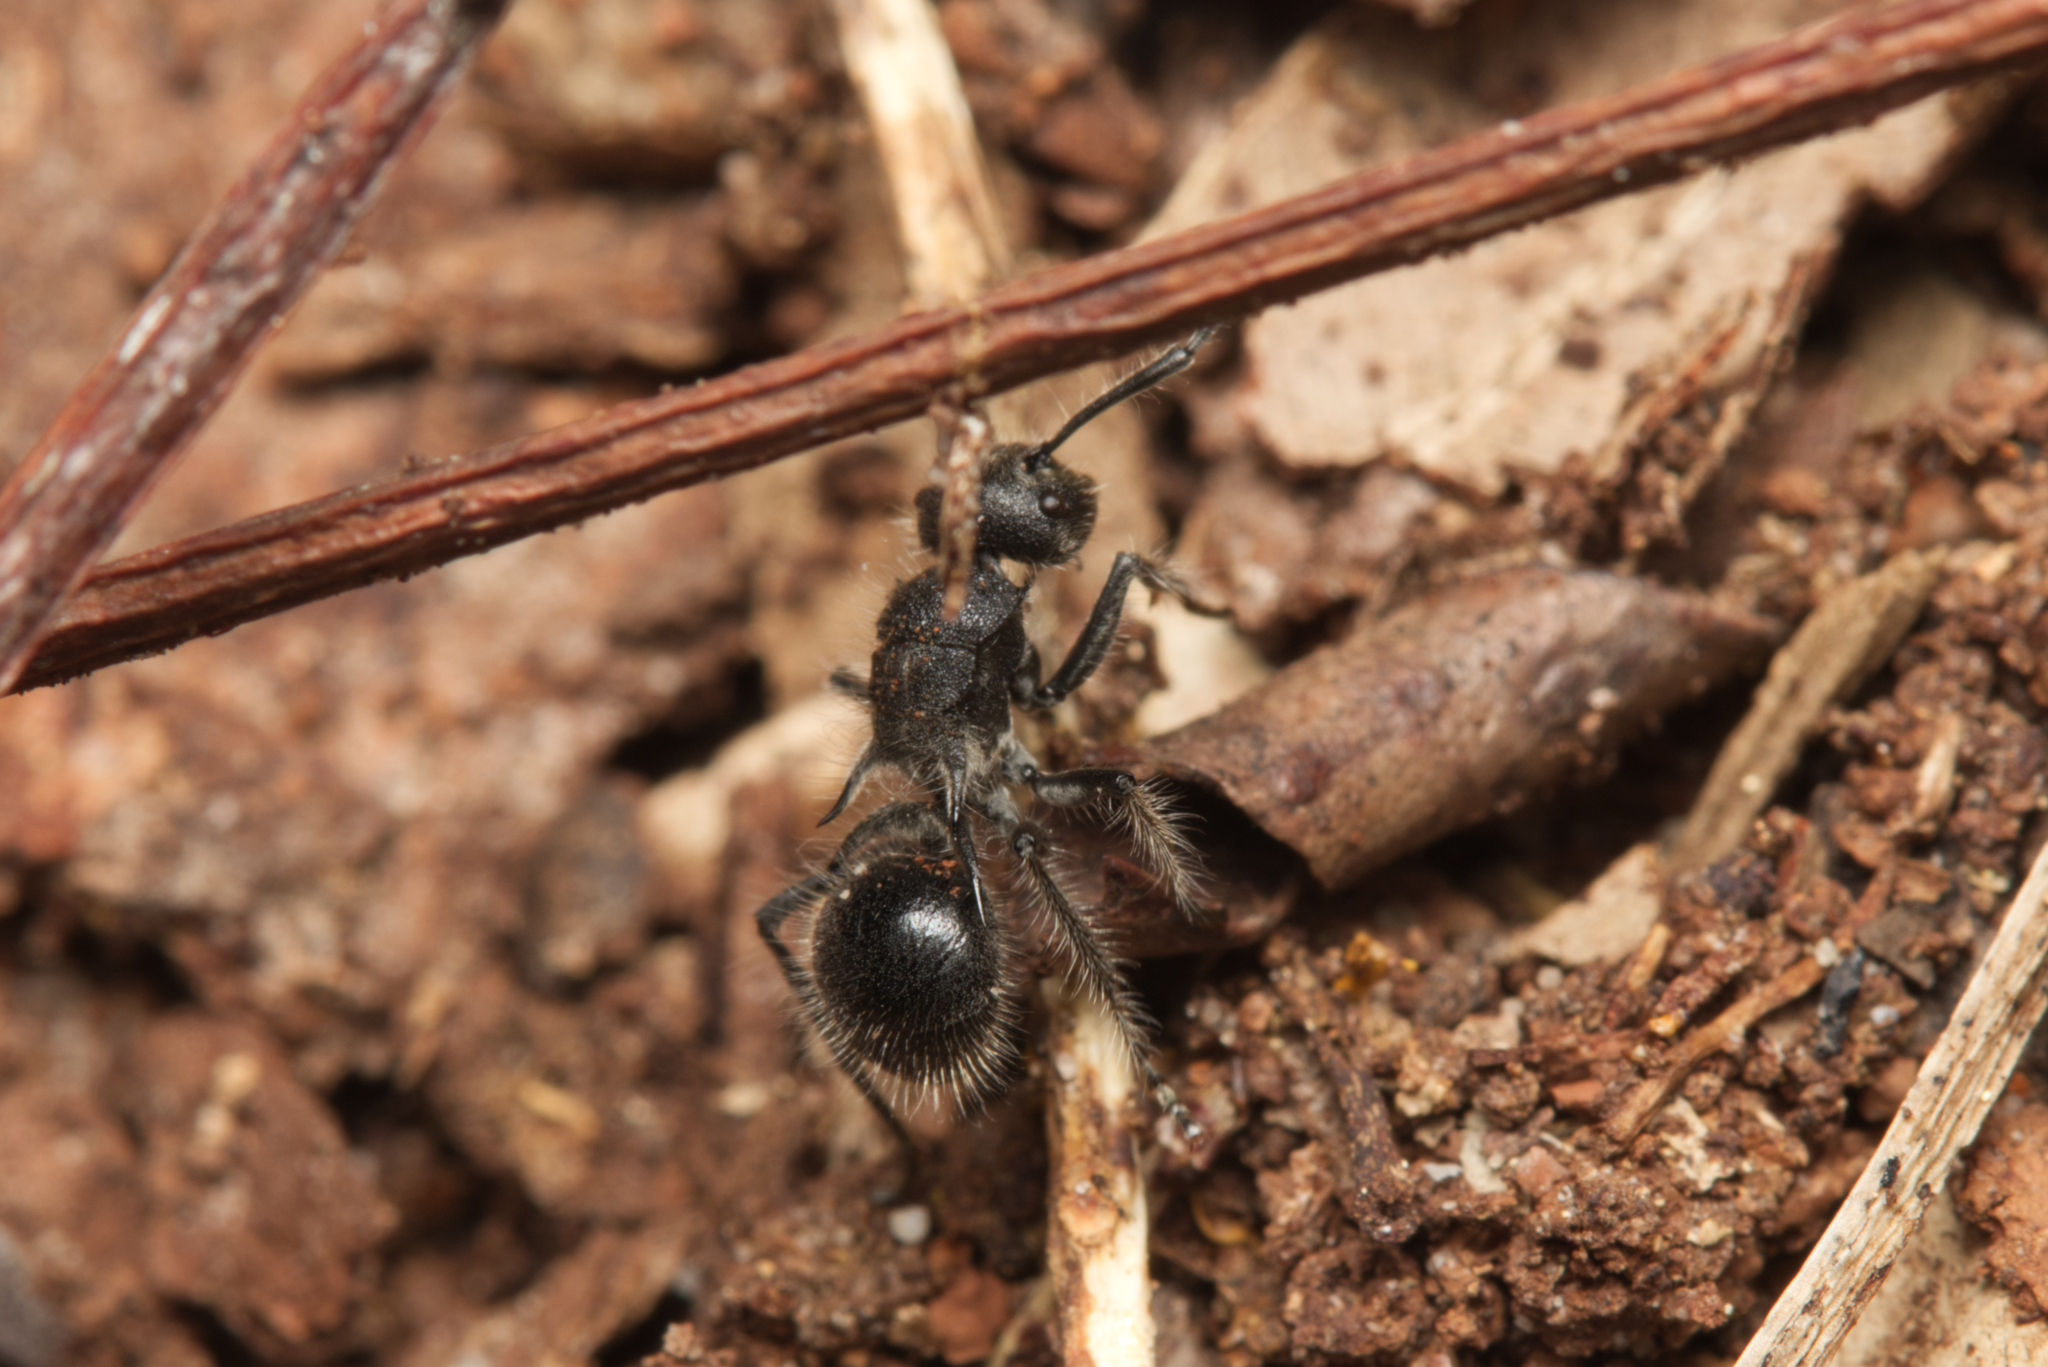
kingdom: Animalia
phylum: Arthropoda
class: Insecta
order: Hymenoptera
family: Formicidae
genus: Polyrhachis
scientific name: Polyrhachis punctiventris
